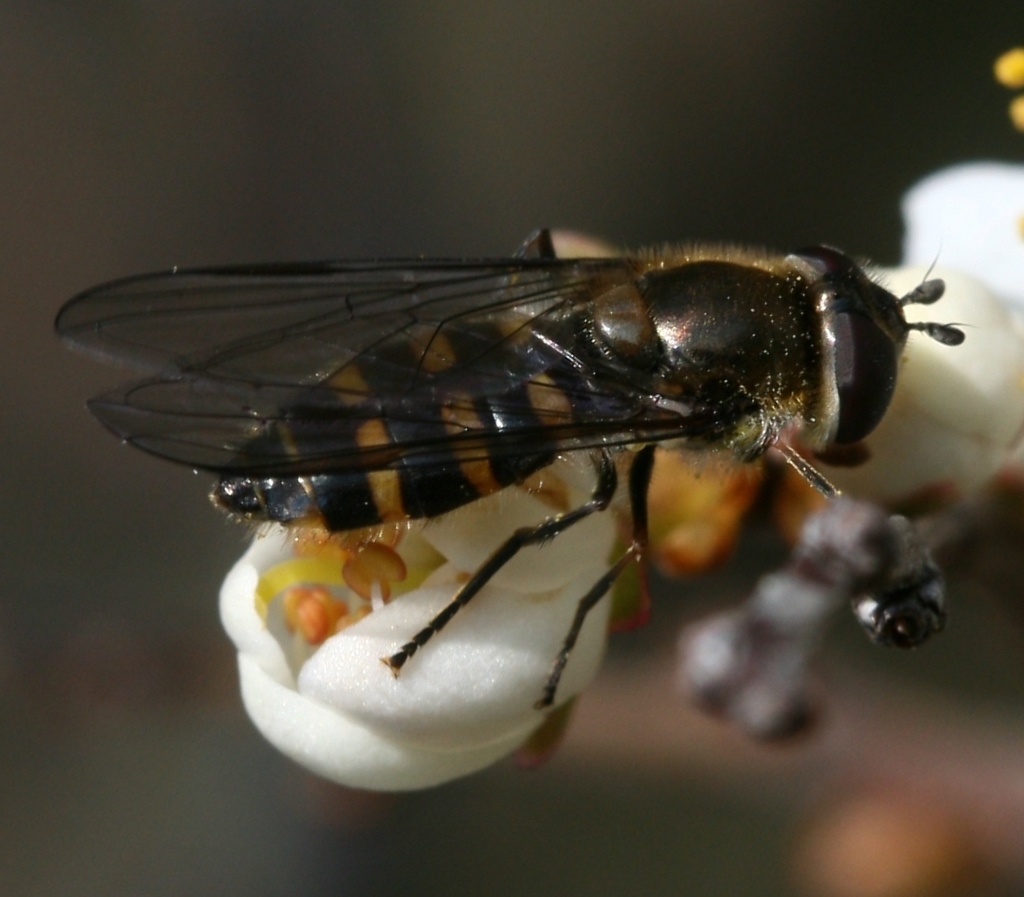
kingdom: Animalia
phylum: Arthropoda
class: Insecta
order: Diptera
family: Syrphidae
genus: Melangyna
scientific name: Melangyna lasiophthalma
